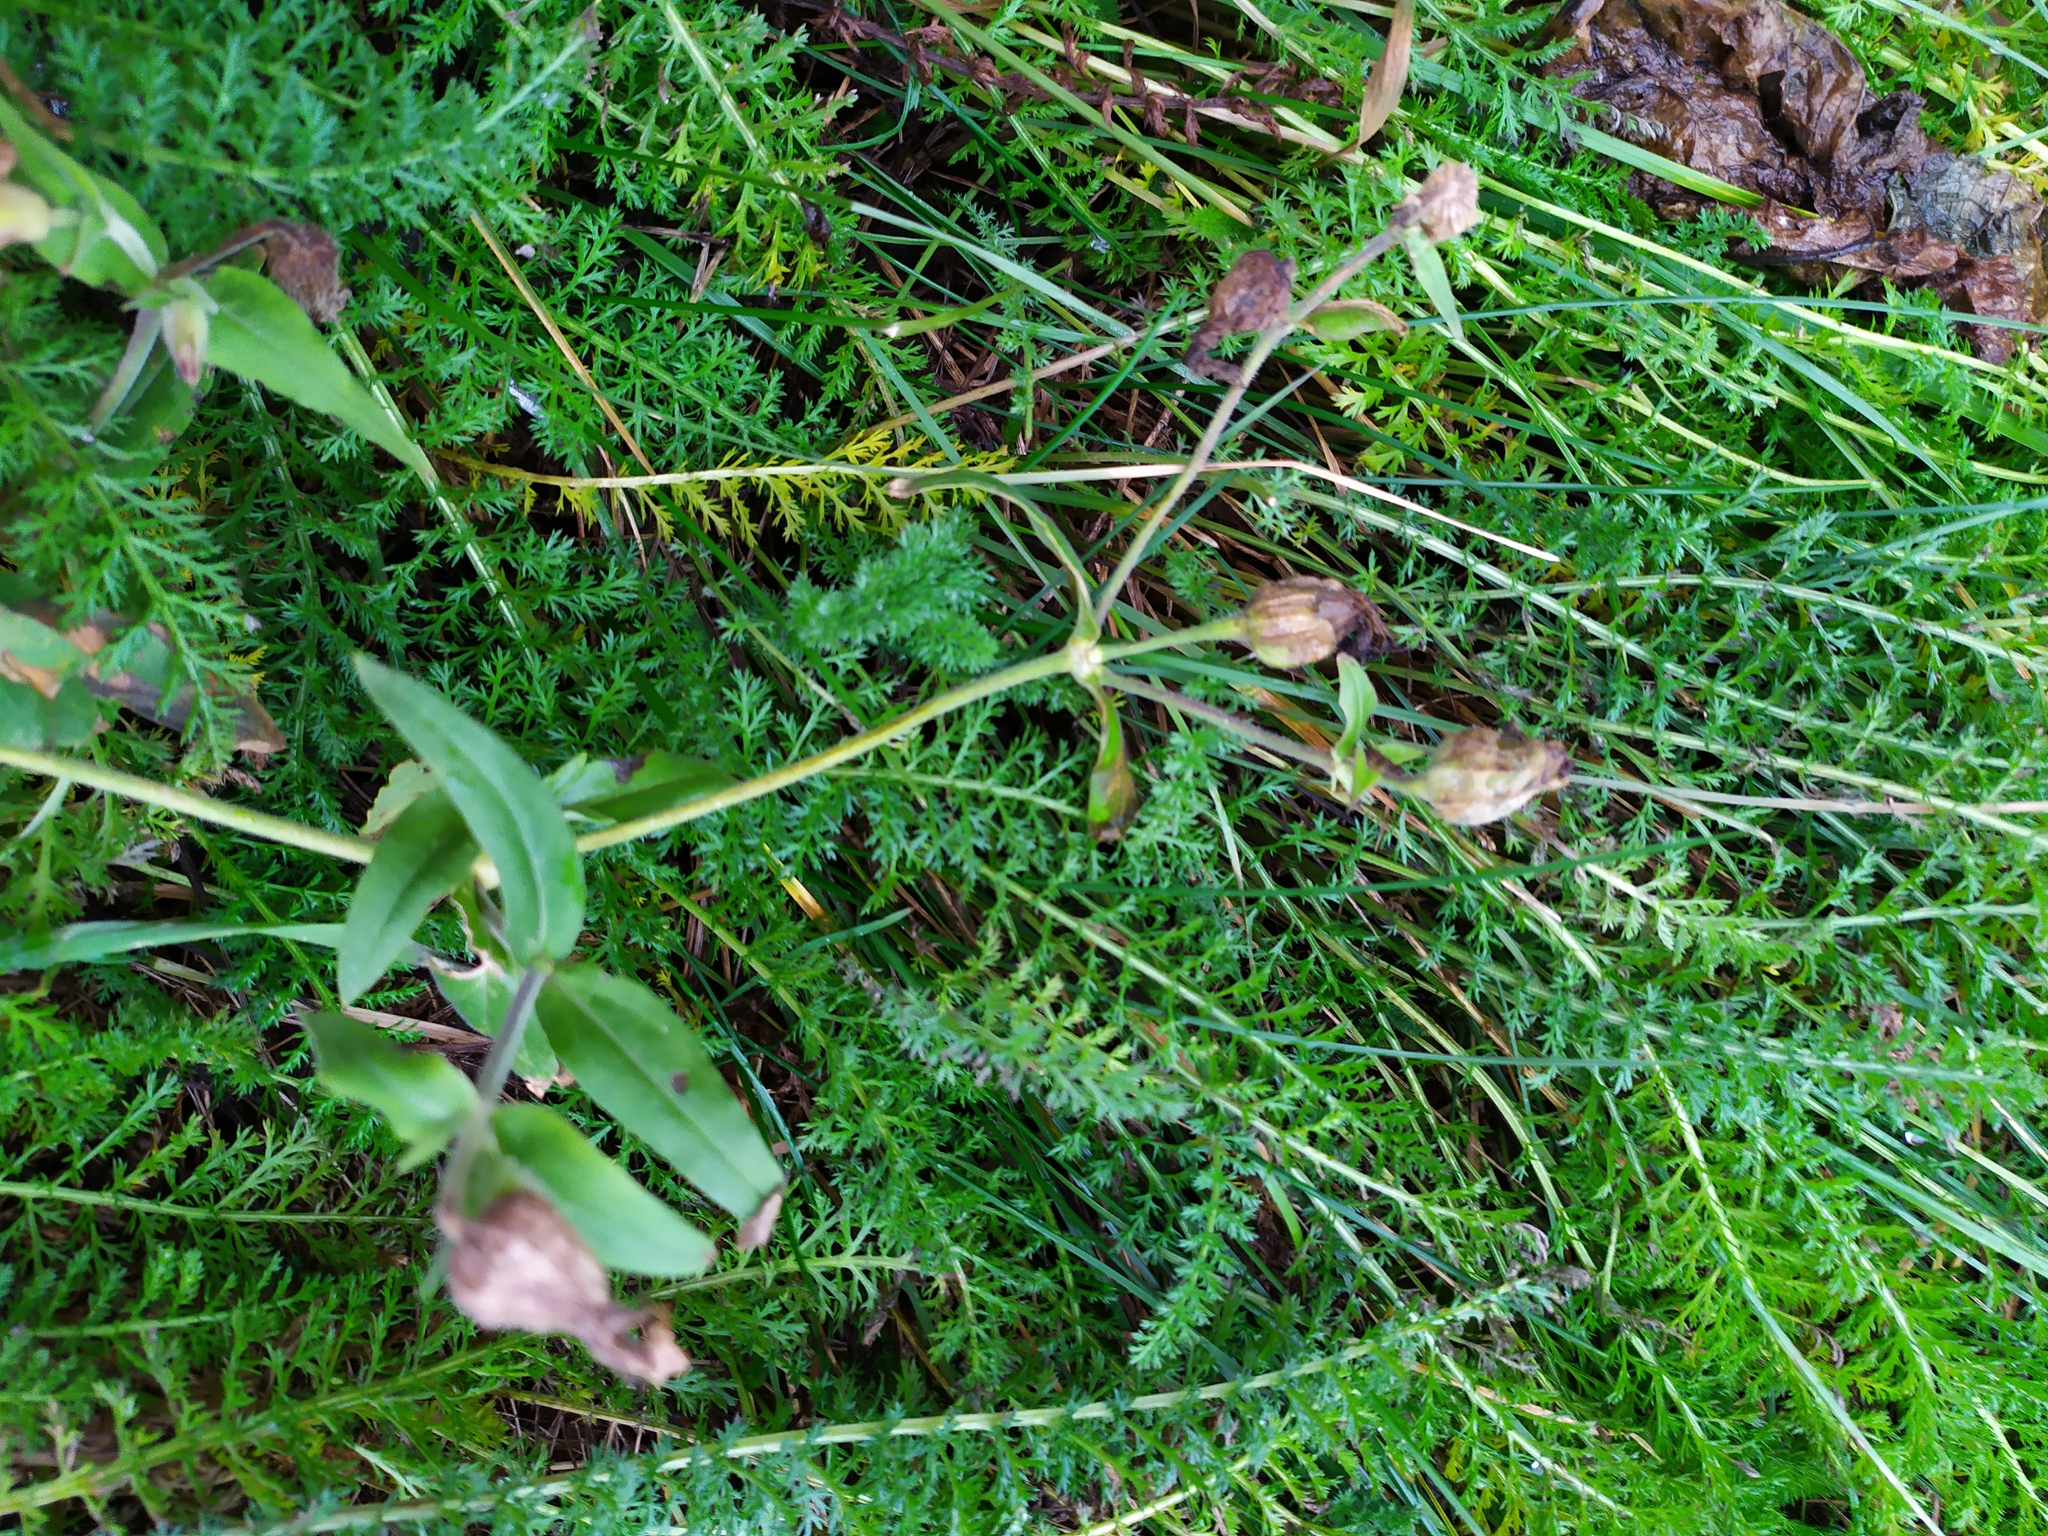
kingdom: Plantae
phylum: Tracheophyta
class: Magnoliopsida
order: Caryophyllales
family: Caryophyllaceae
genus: Silene
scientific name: Silene latifolia
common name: White campion
